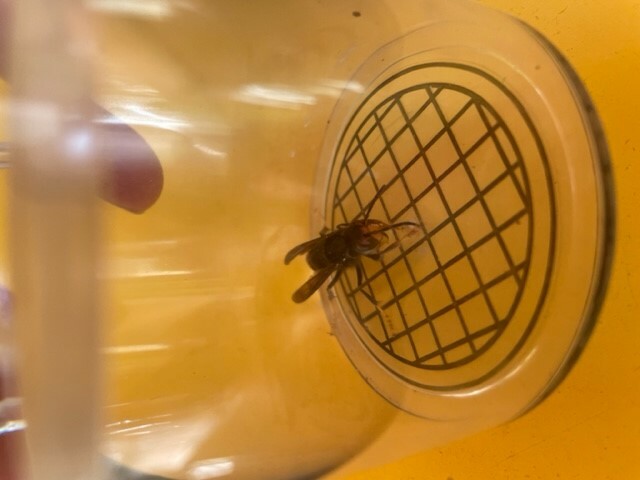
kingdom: Animalia
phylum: Arthropoda
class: Insecta
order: Hymenoptera
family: Vespidae
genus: Vespa
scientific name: Vespa velutina
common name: Asian hornet
